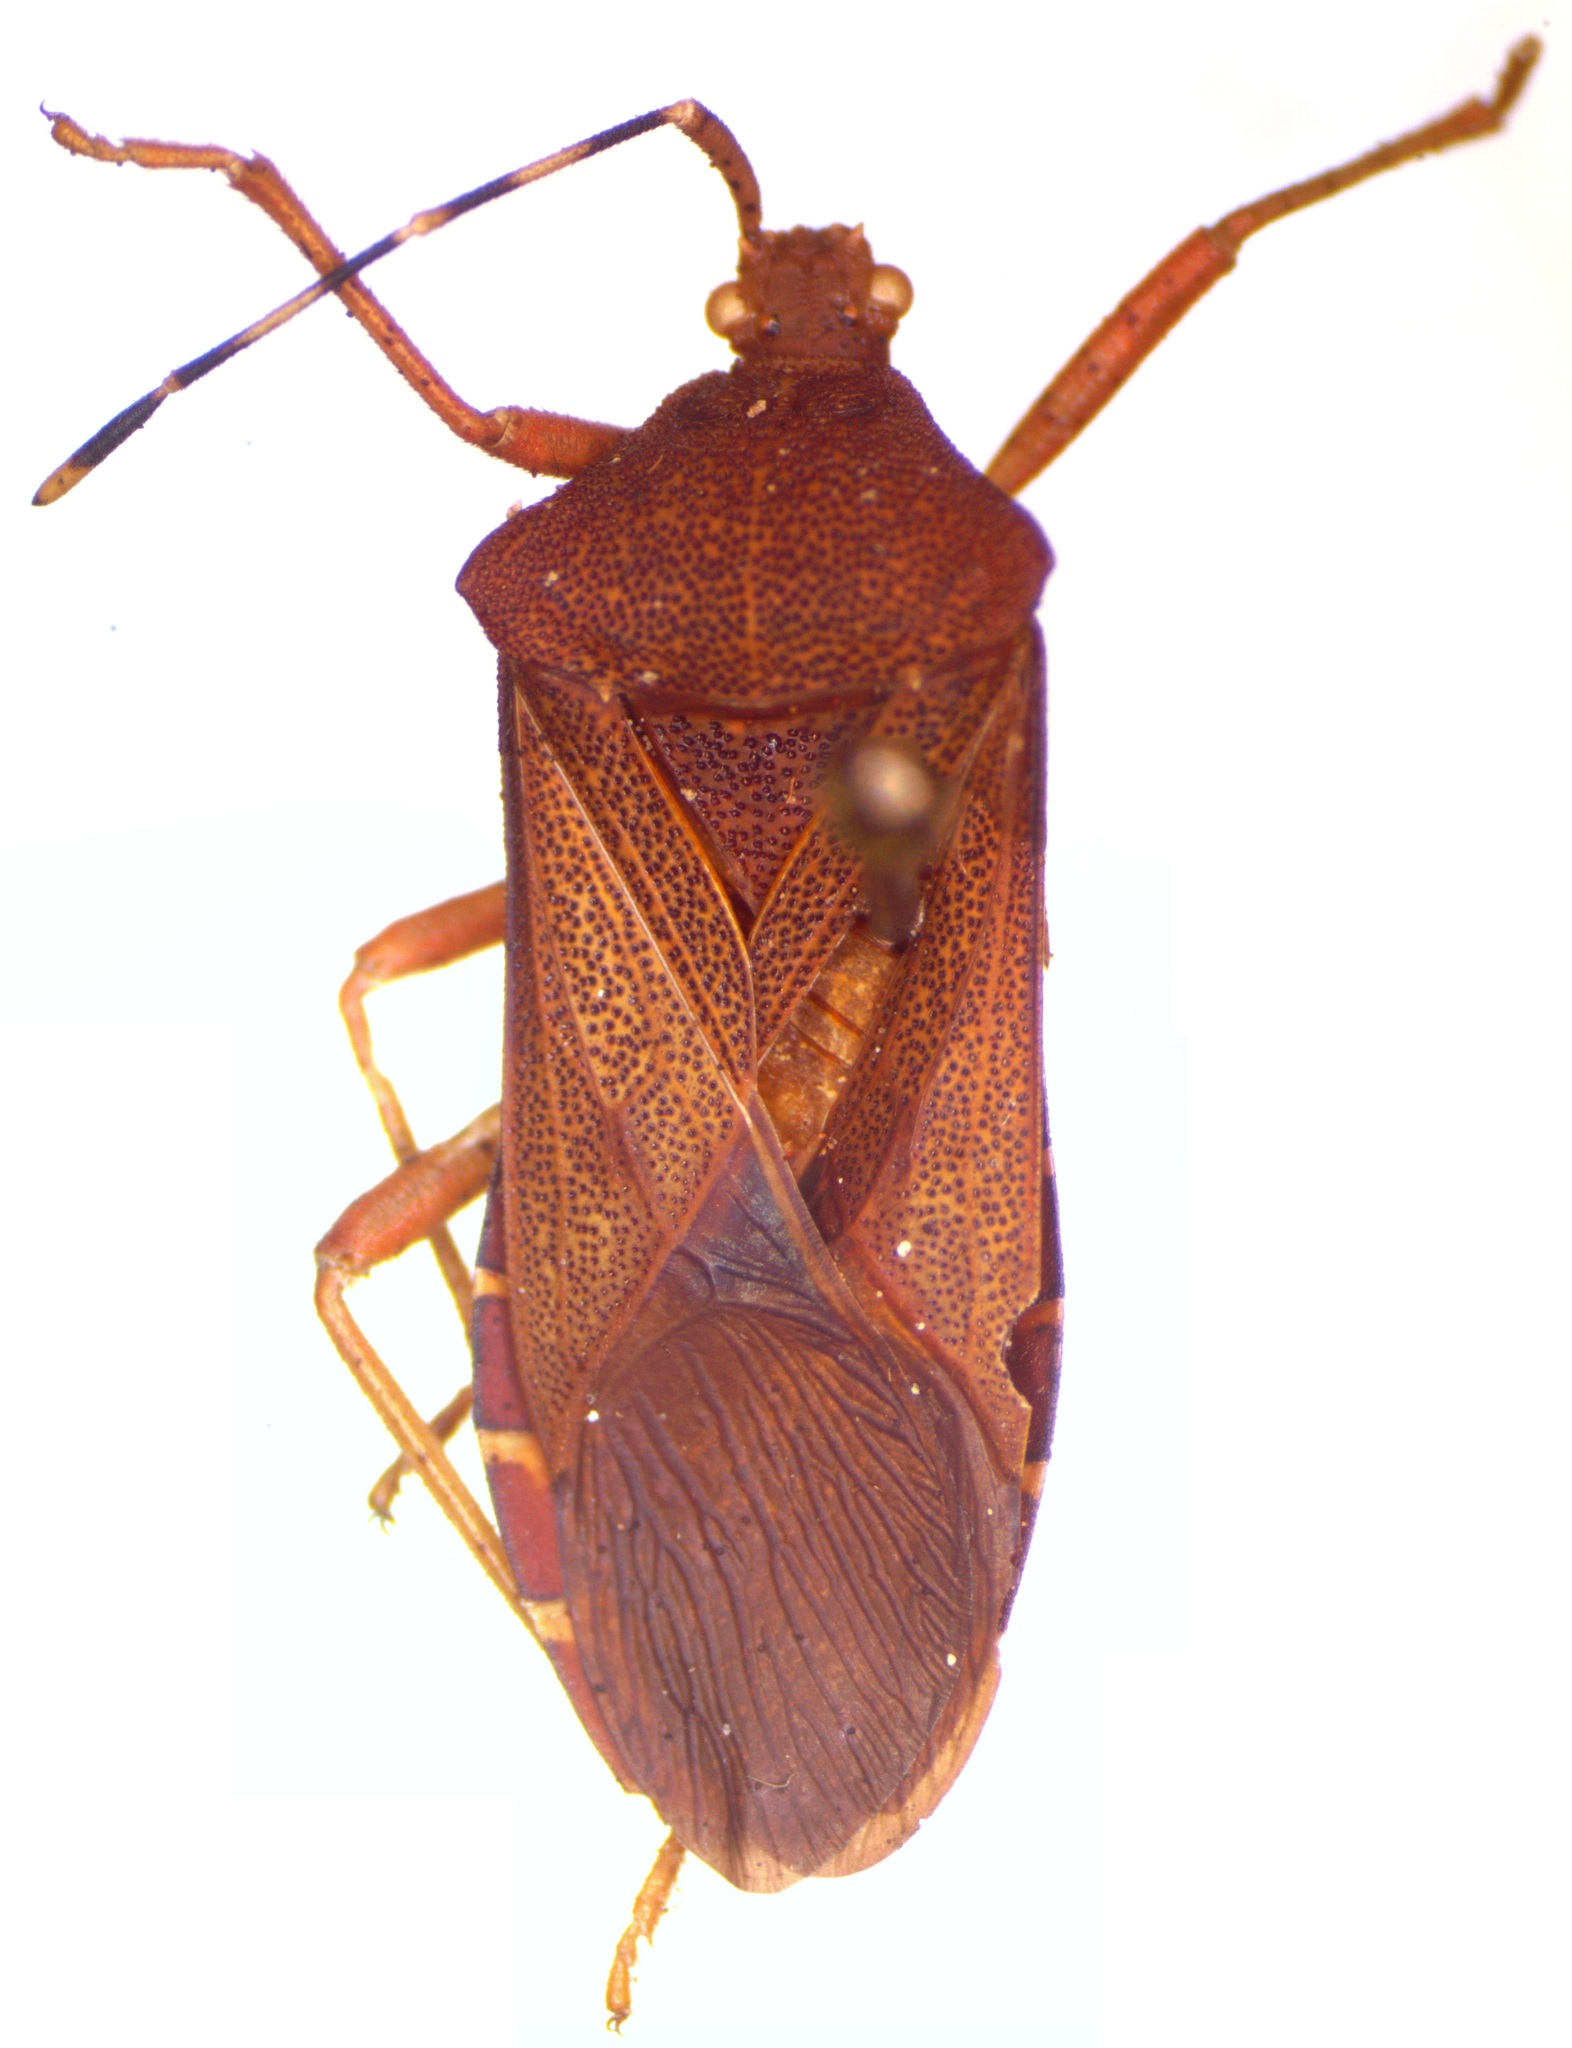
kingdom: Animalia
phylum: Arthropoda
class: Insecta
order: Hemiptera
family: Coreidae
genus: Anasa
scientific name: Anasa bellator
